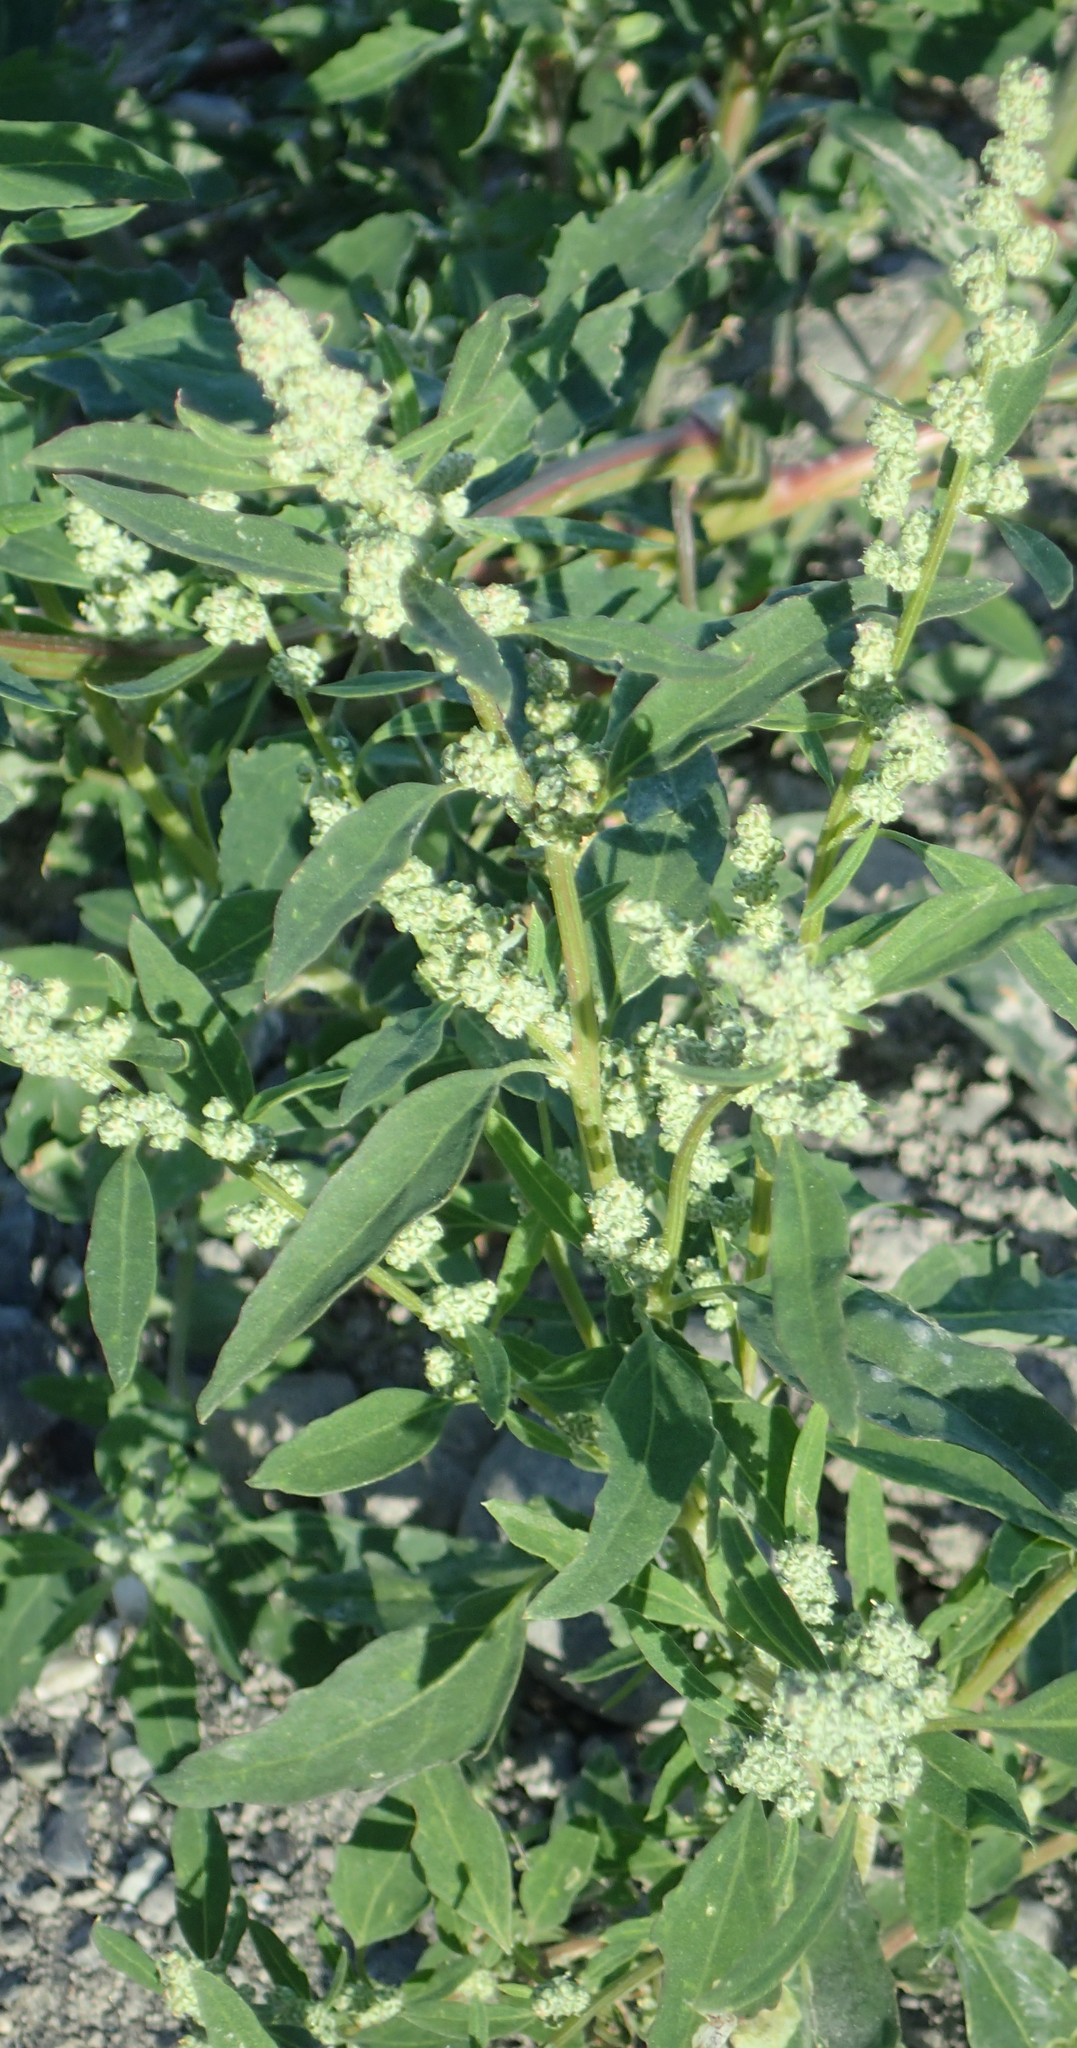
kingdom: Plantae
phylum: Tracheophyta
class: Magnoliopsida
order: Caryophyllales
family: Amaranthaceae
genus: Chenopodium
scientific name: Chenopodium album
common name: Fat-hen
